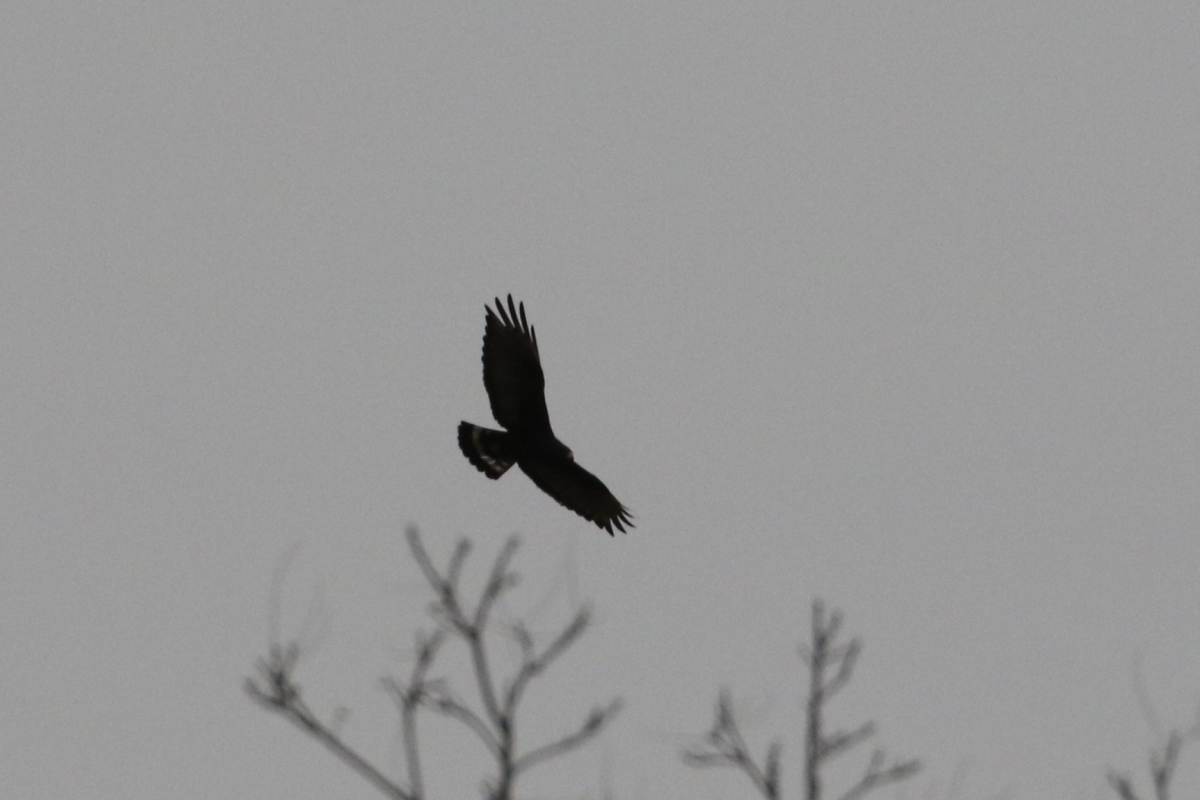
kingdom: Animalia
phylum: Chordata
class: Aves
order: Accipitriformes
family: Accipitridae
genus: Buteo
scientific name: Buteo albonotatus
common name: Zone-tailed hawk
